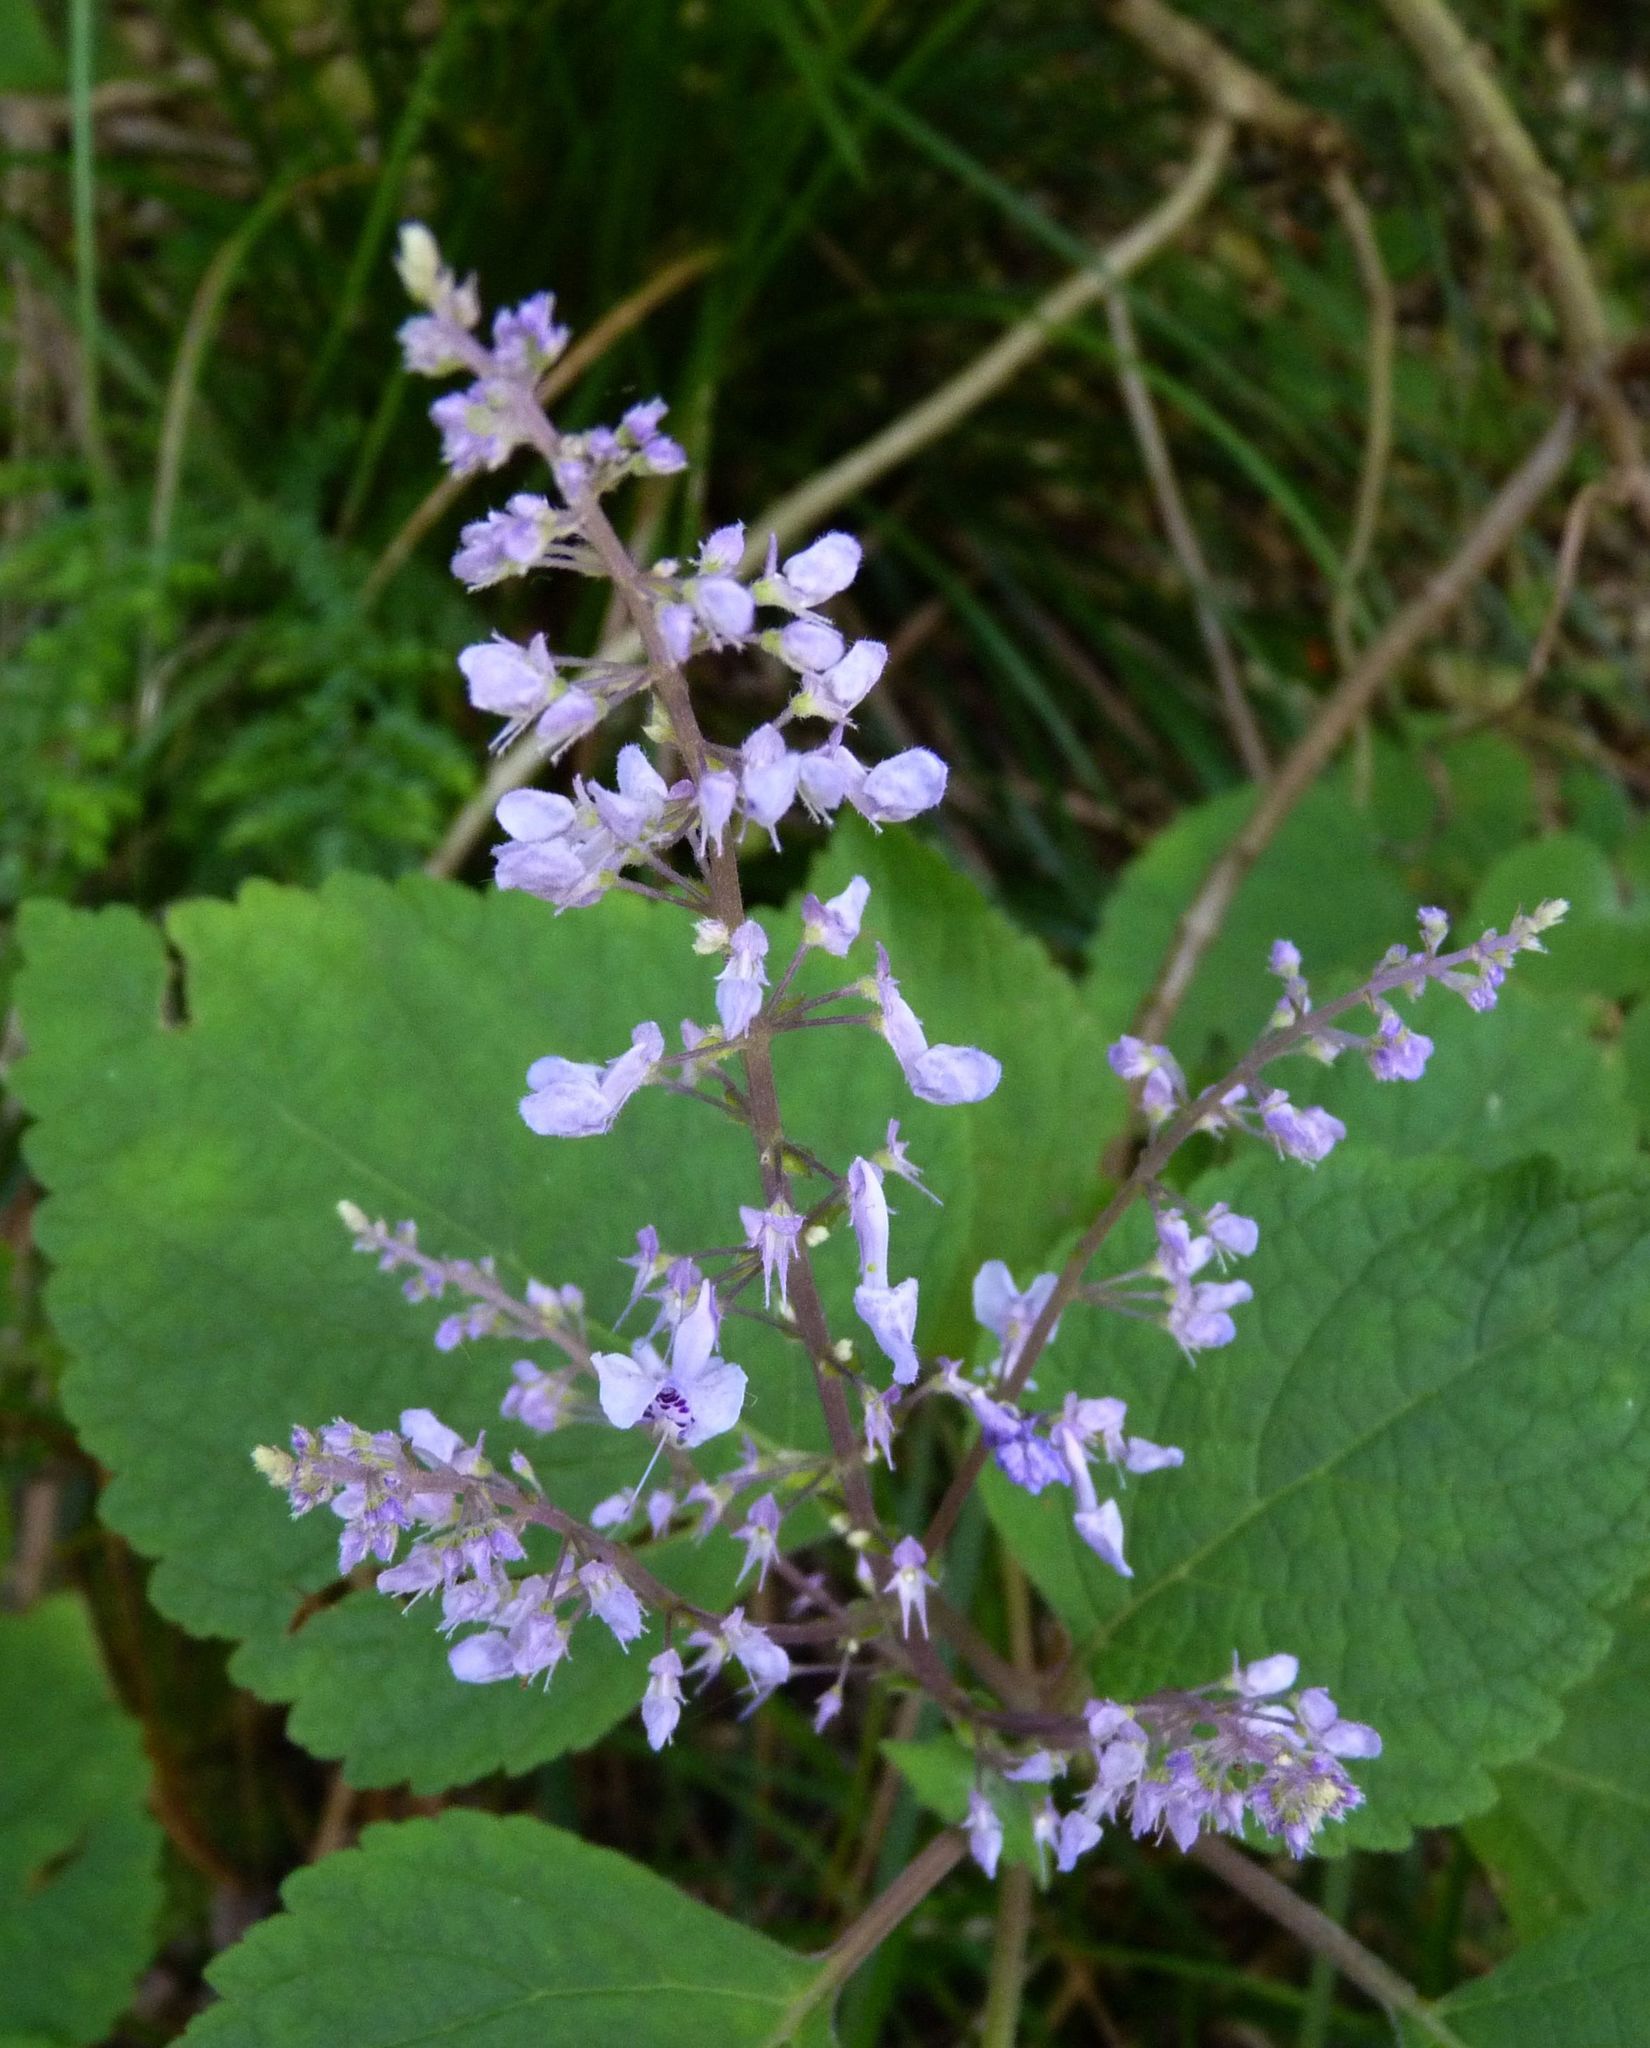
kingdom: Plantae
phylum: Tracheophyta
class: Magnoliopsida
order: Lamiales
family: Lamiaceae
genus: Plectranthus
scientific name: Plectranthus fruticosus
